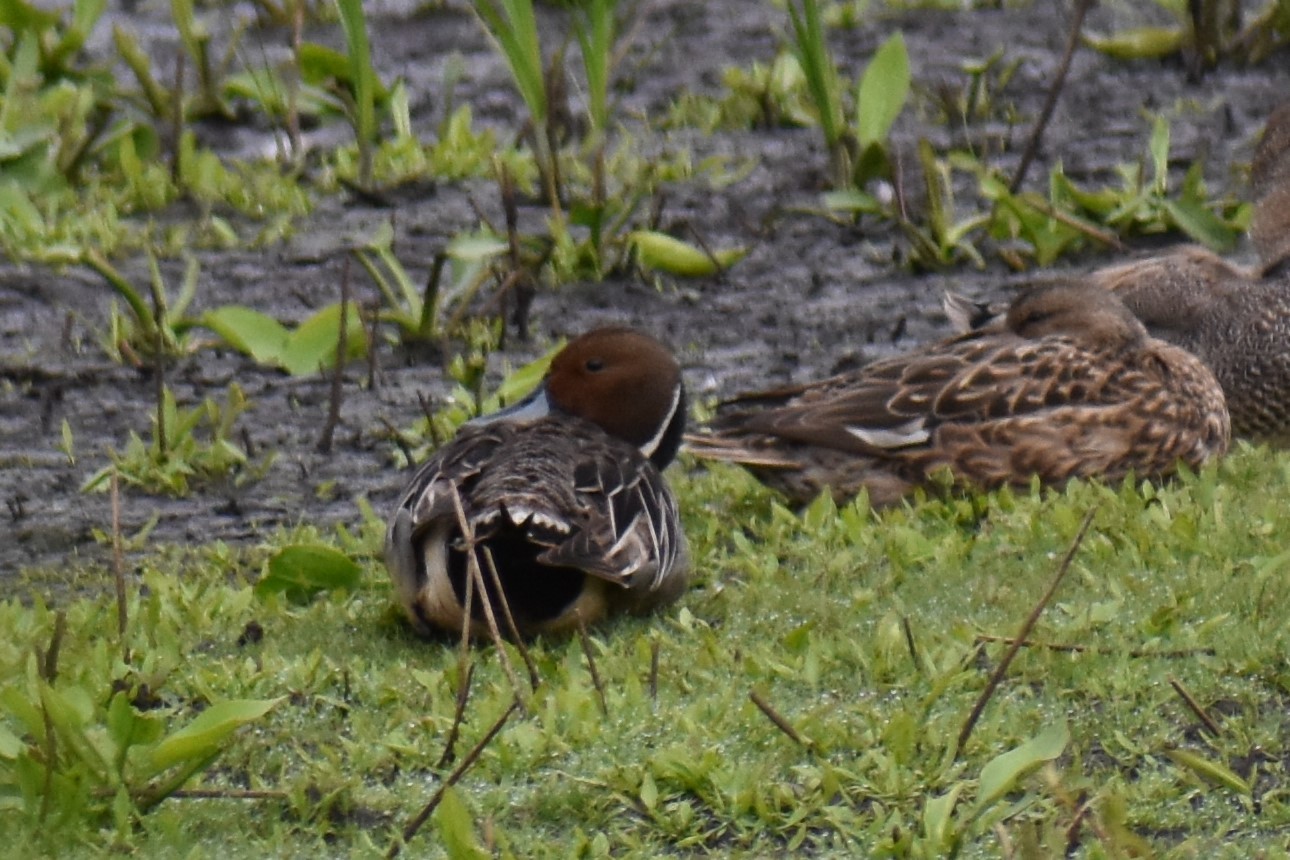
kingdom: Animalia
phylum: Chordata
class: Aves
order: Anseriformes
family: Anatidae
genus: Anas
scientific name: Anas acuta
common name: Northern pintail
